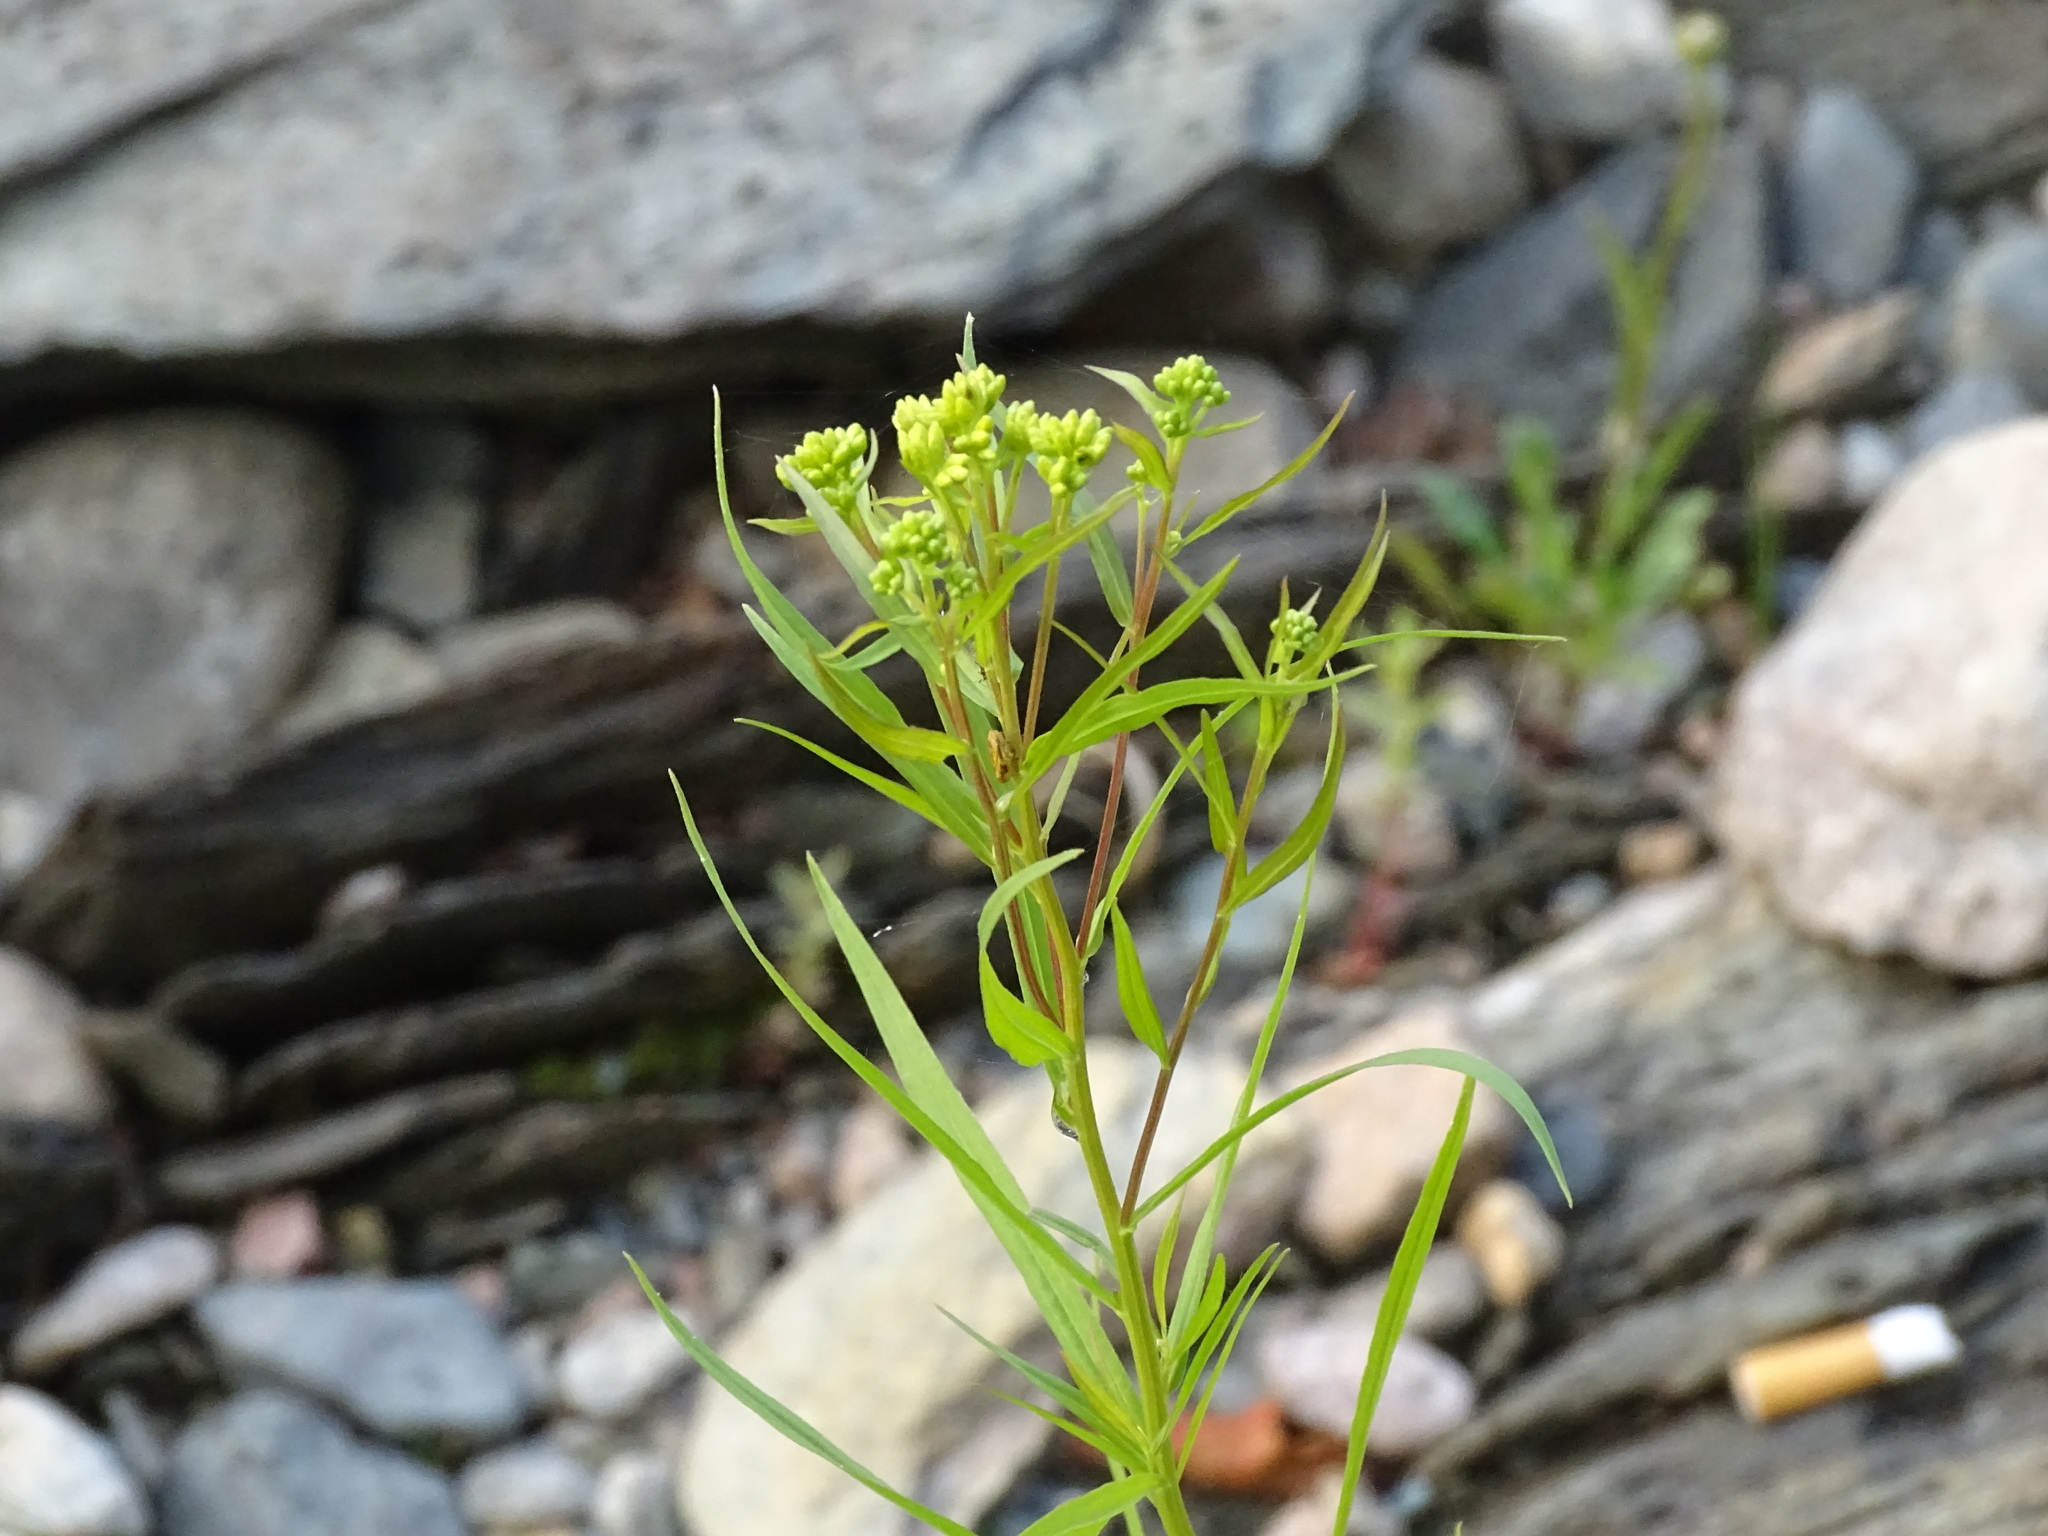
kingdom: Plantae
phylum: Tracheophyta
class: Magnoliopsida
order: Asterales
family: Asteraceae
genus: Euthamia
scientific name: Euthamia graminifolia
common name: Common goldentop
